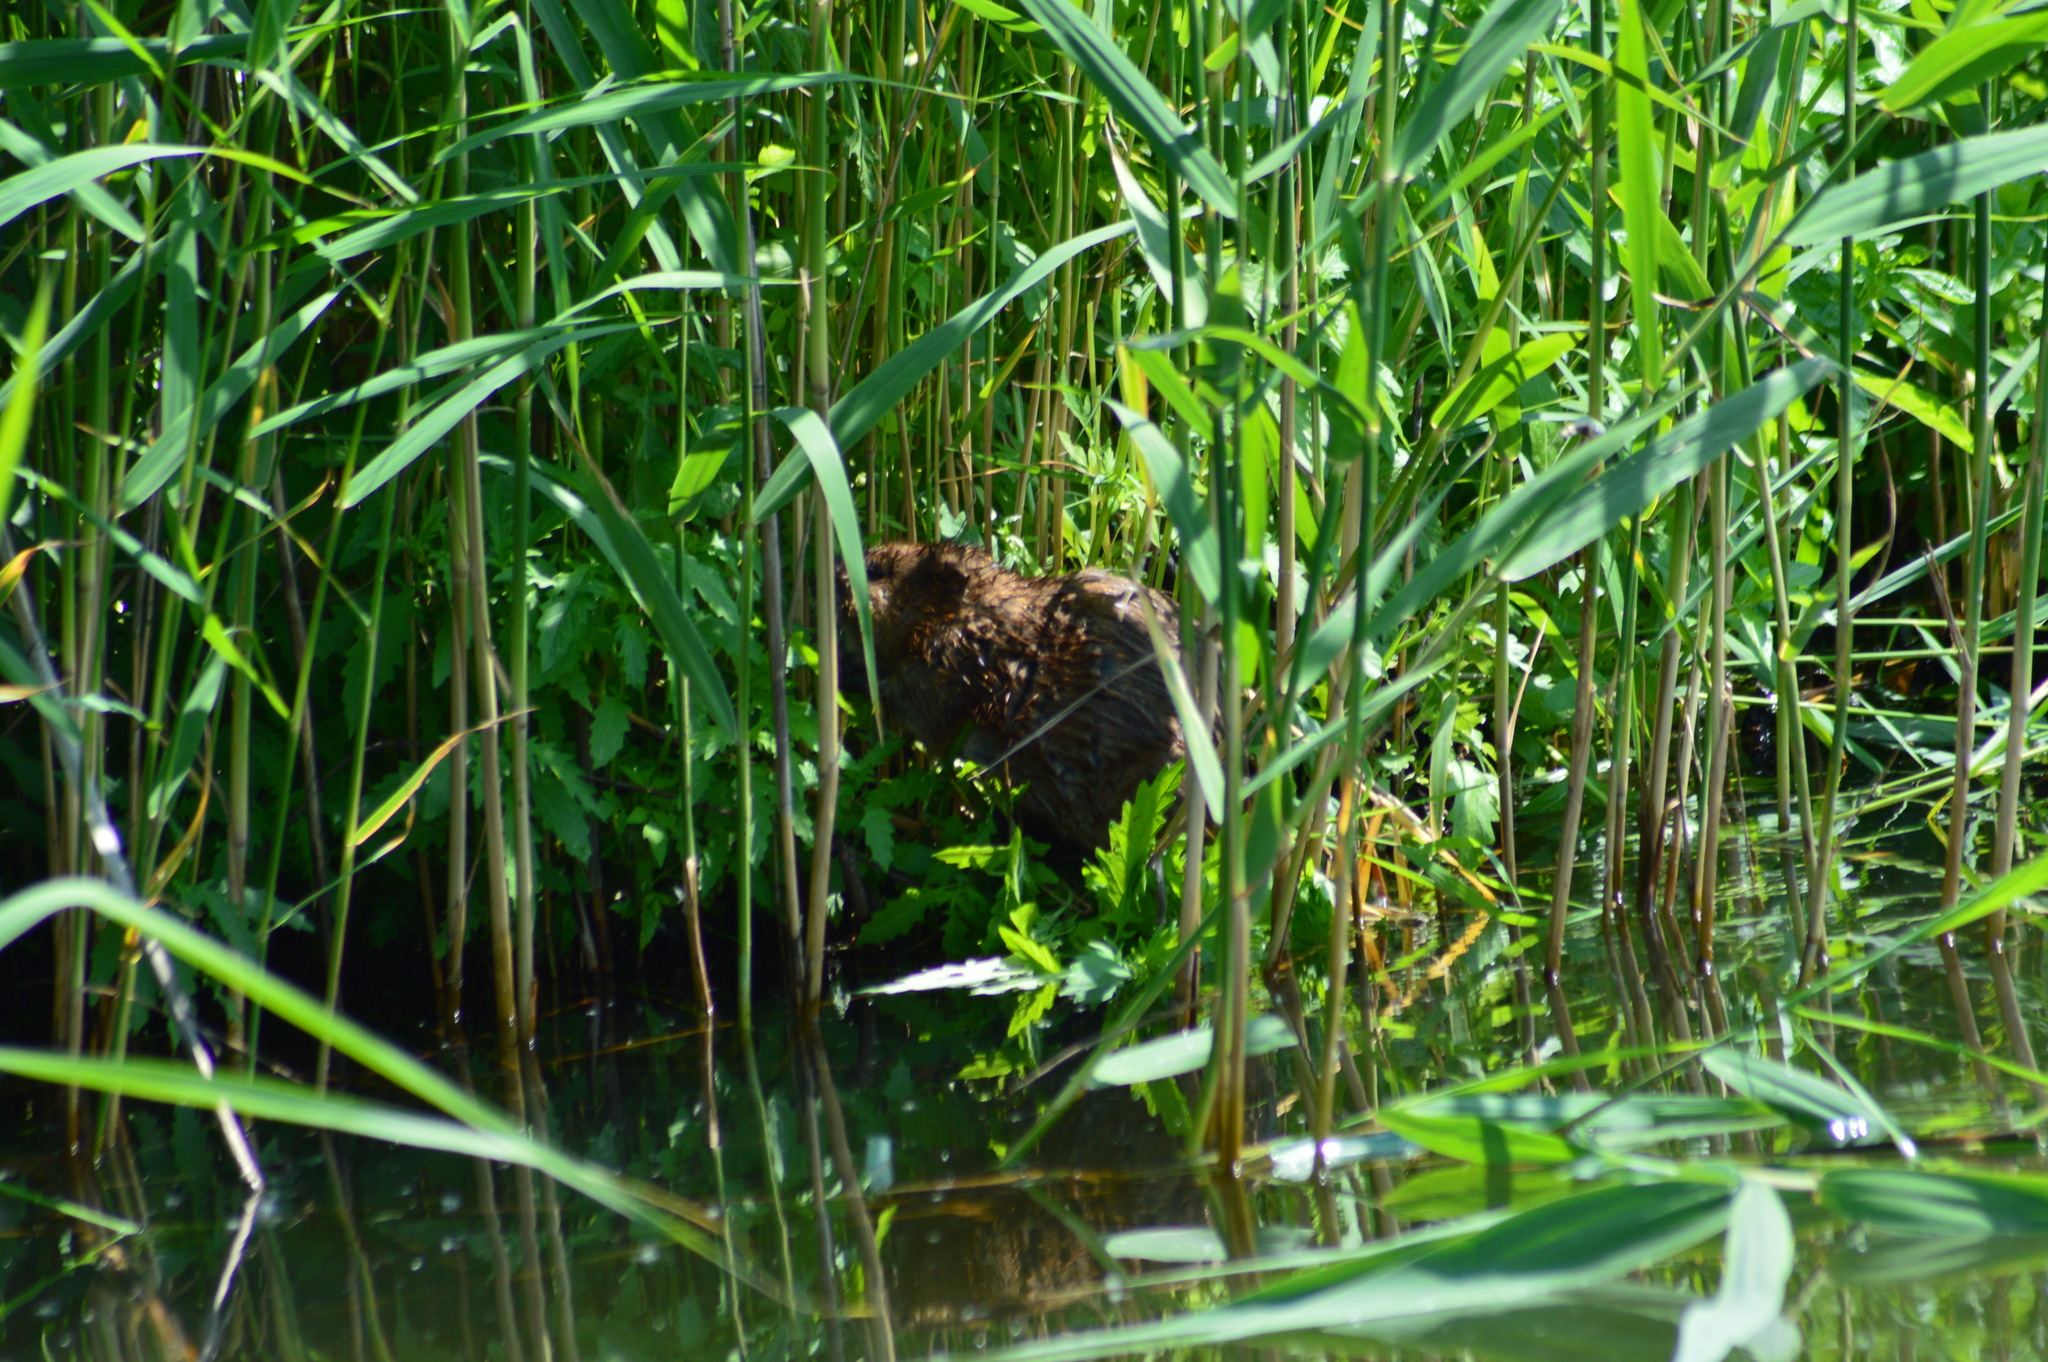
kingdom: Animalia
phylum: Chordata
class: Mammalia
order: Rodentia
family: Cricetidae
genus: Ondatra
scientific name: Ondatra zibethicus
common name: Muskrat
